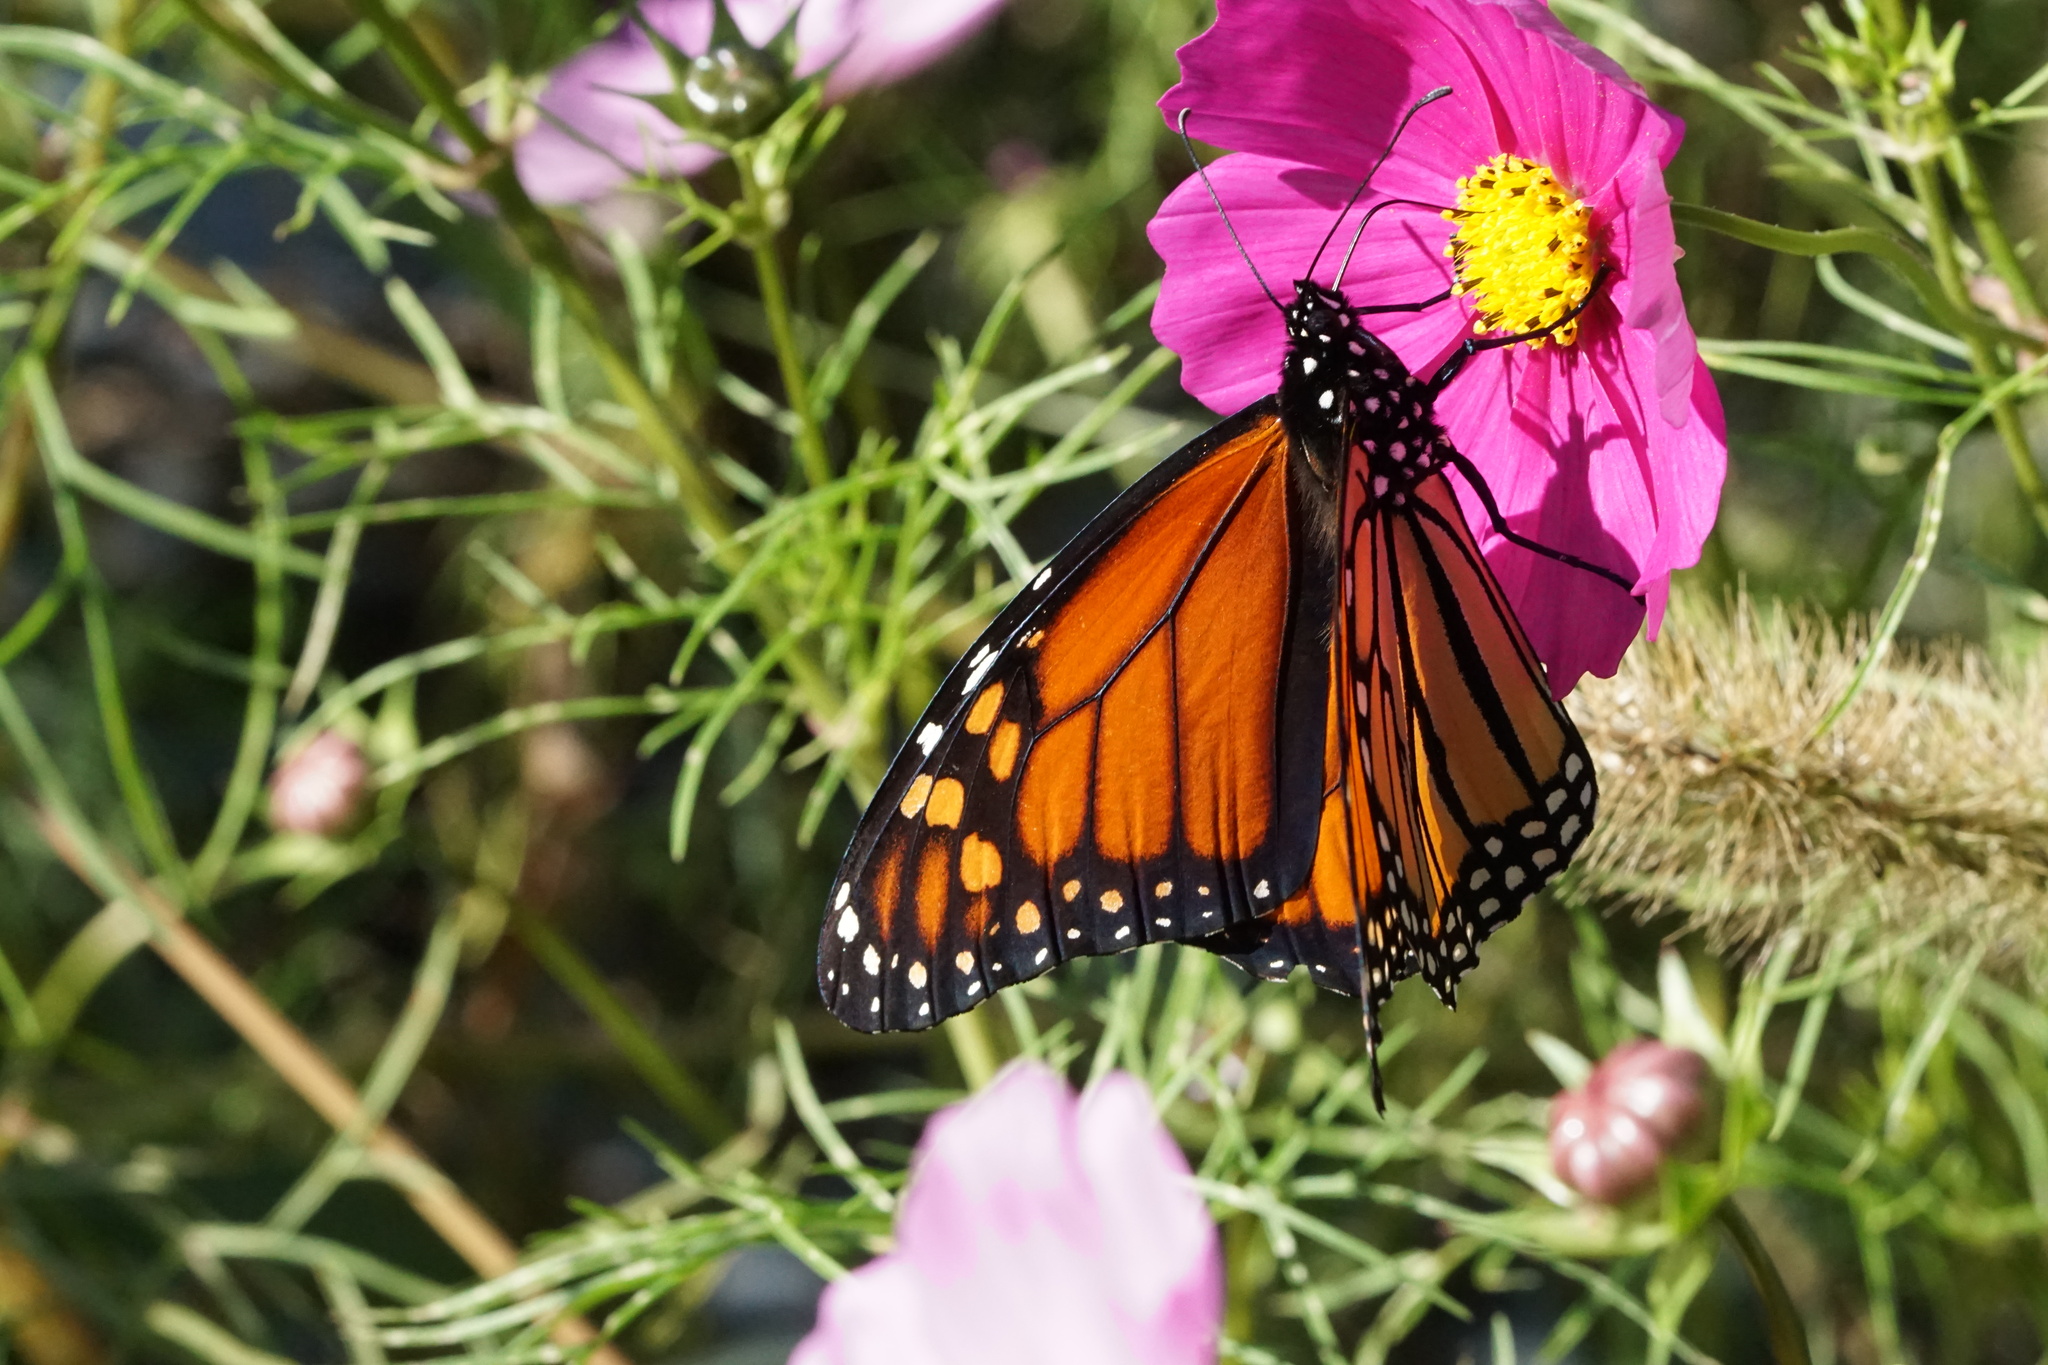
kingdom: Animalia
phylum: Arthropoda
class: Insecta
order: Lepidoptera
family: Nymphalidae
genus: Danaus
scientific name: Danaus plexippus
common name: Monarch
